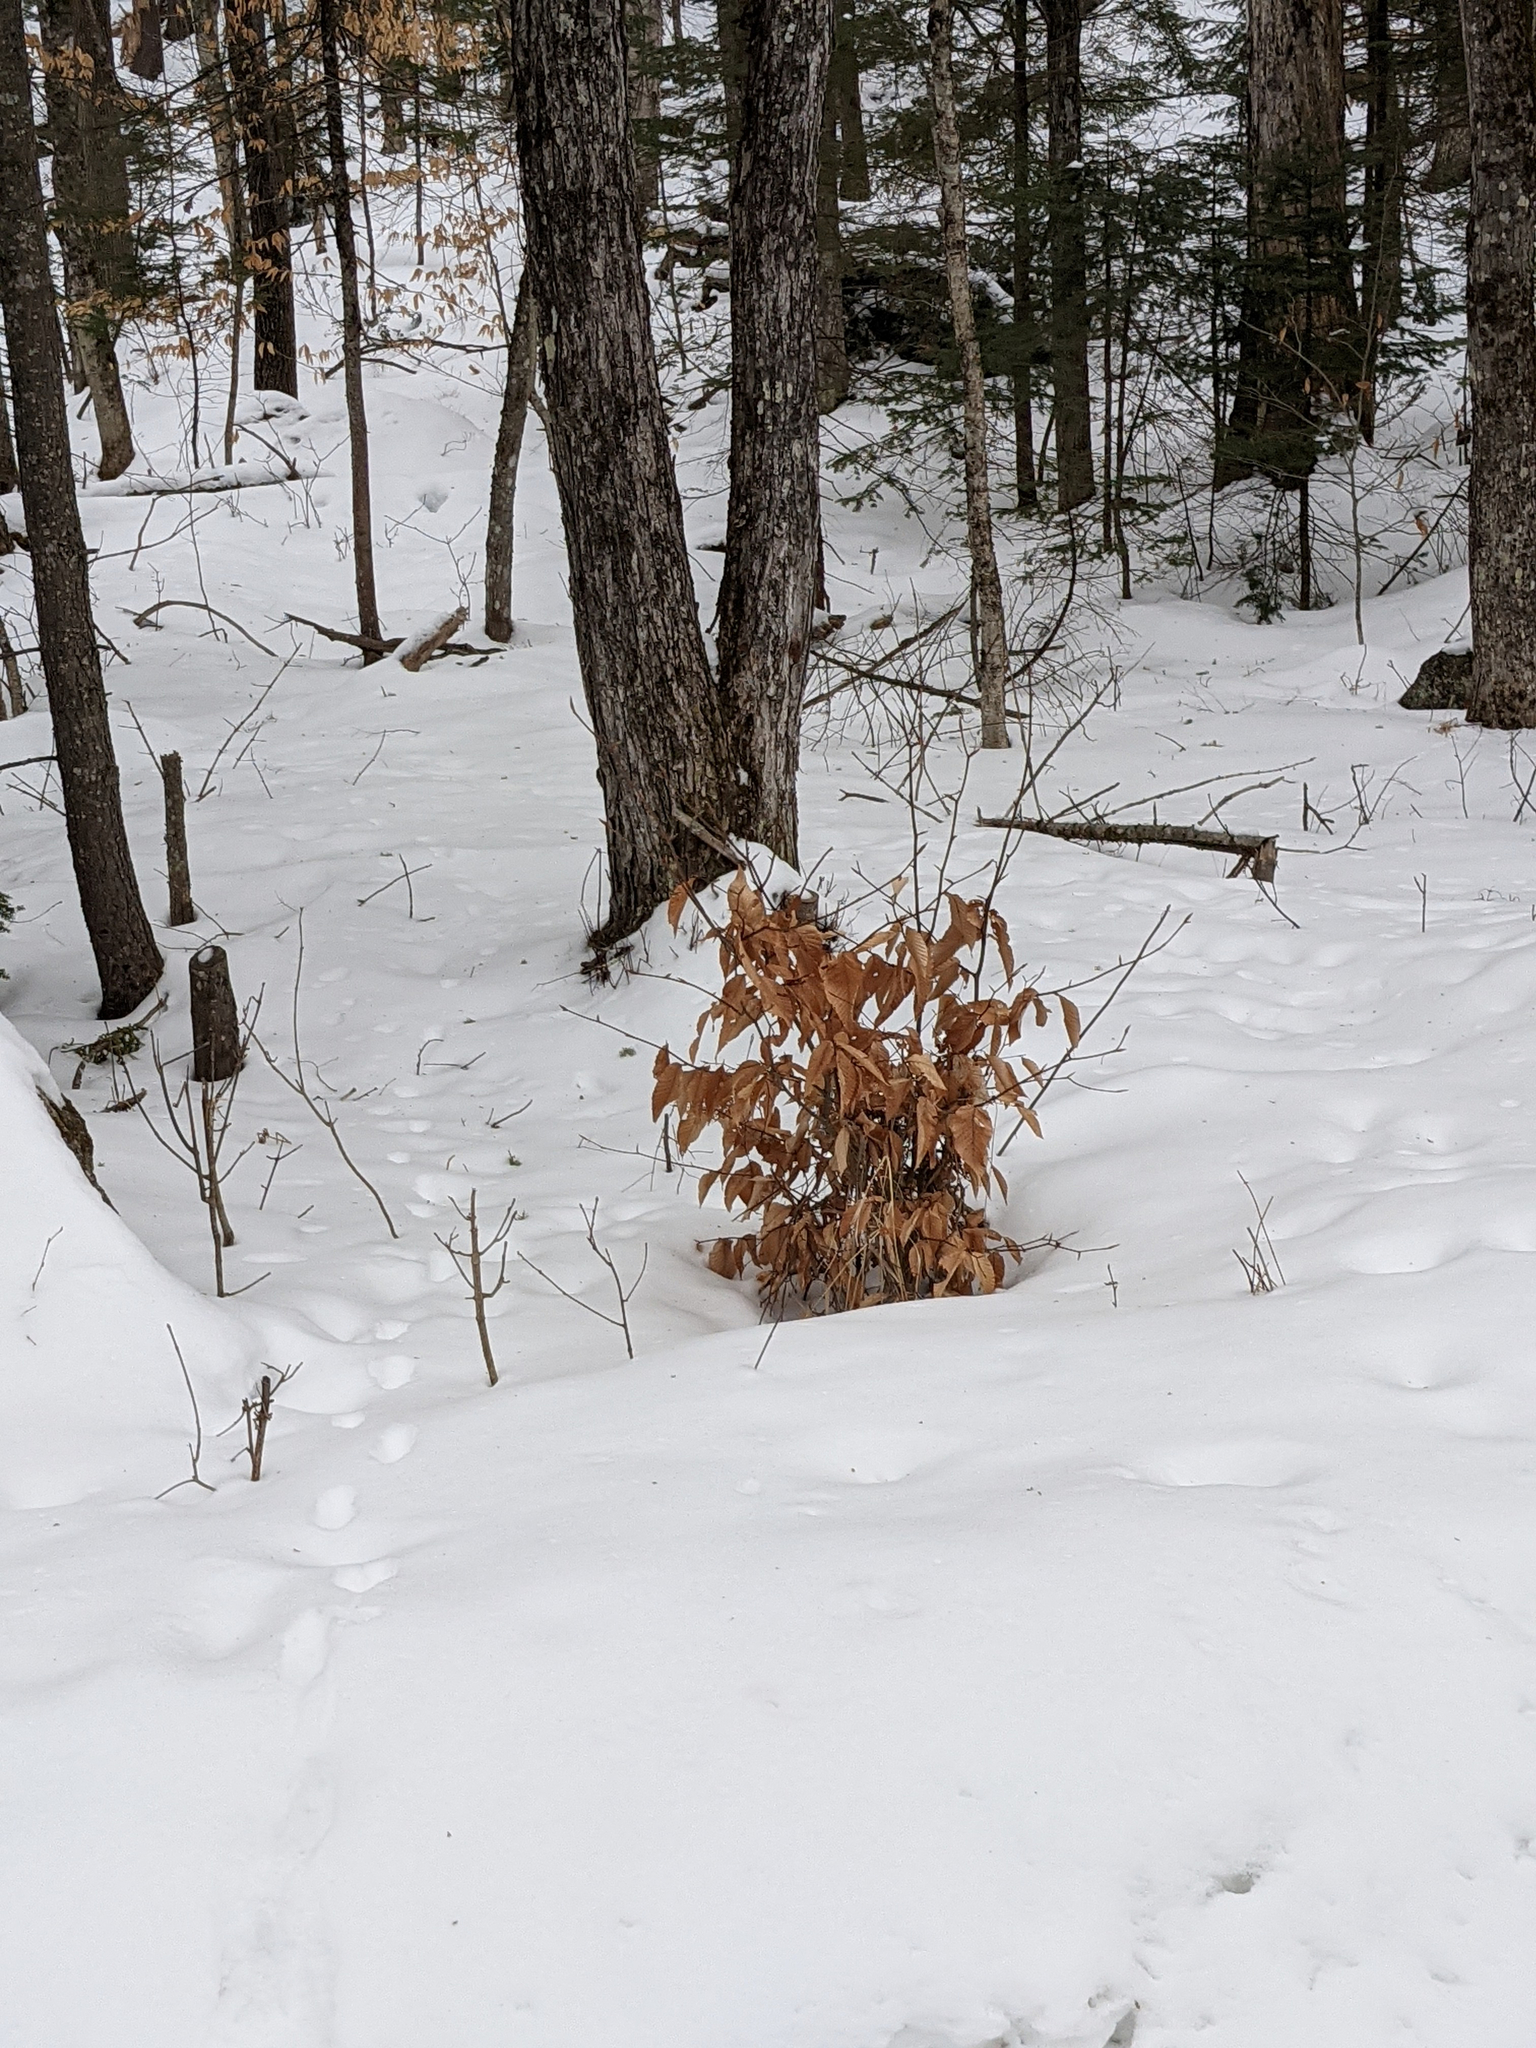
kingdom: Plantae
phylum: Tracheophyta
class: Magnoliopsida
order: Fagales
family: Fagaceae
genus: Fagus
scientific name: Fagus grandifolia
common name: American beech
